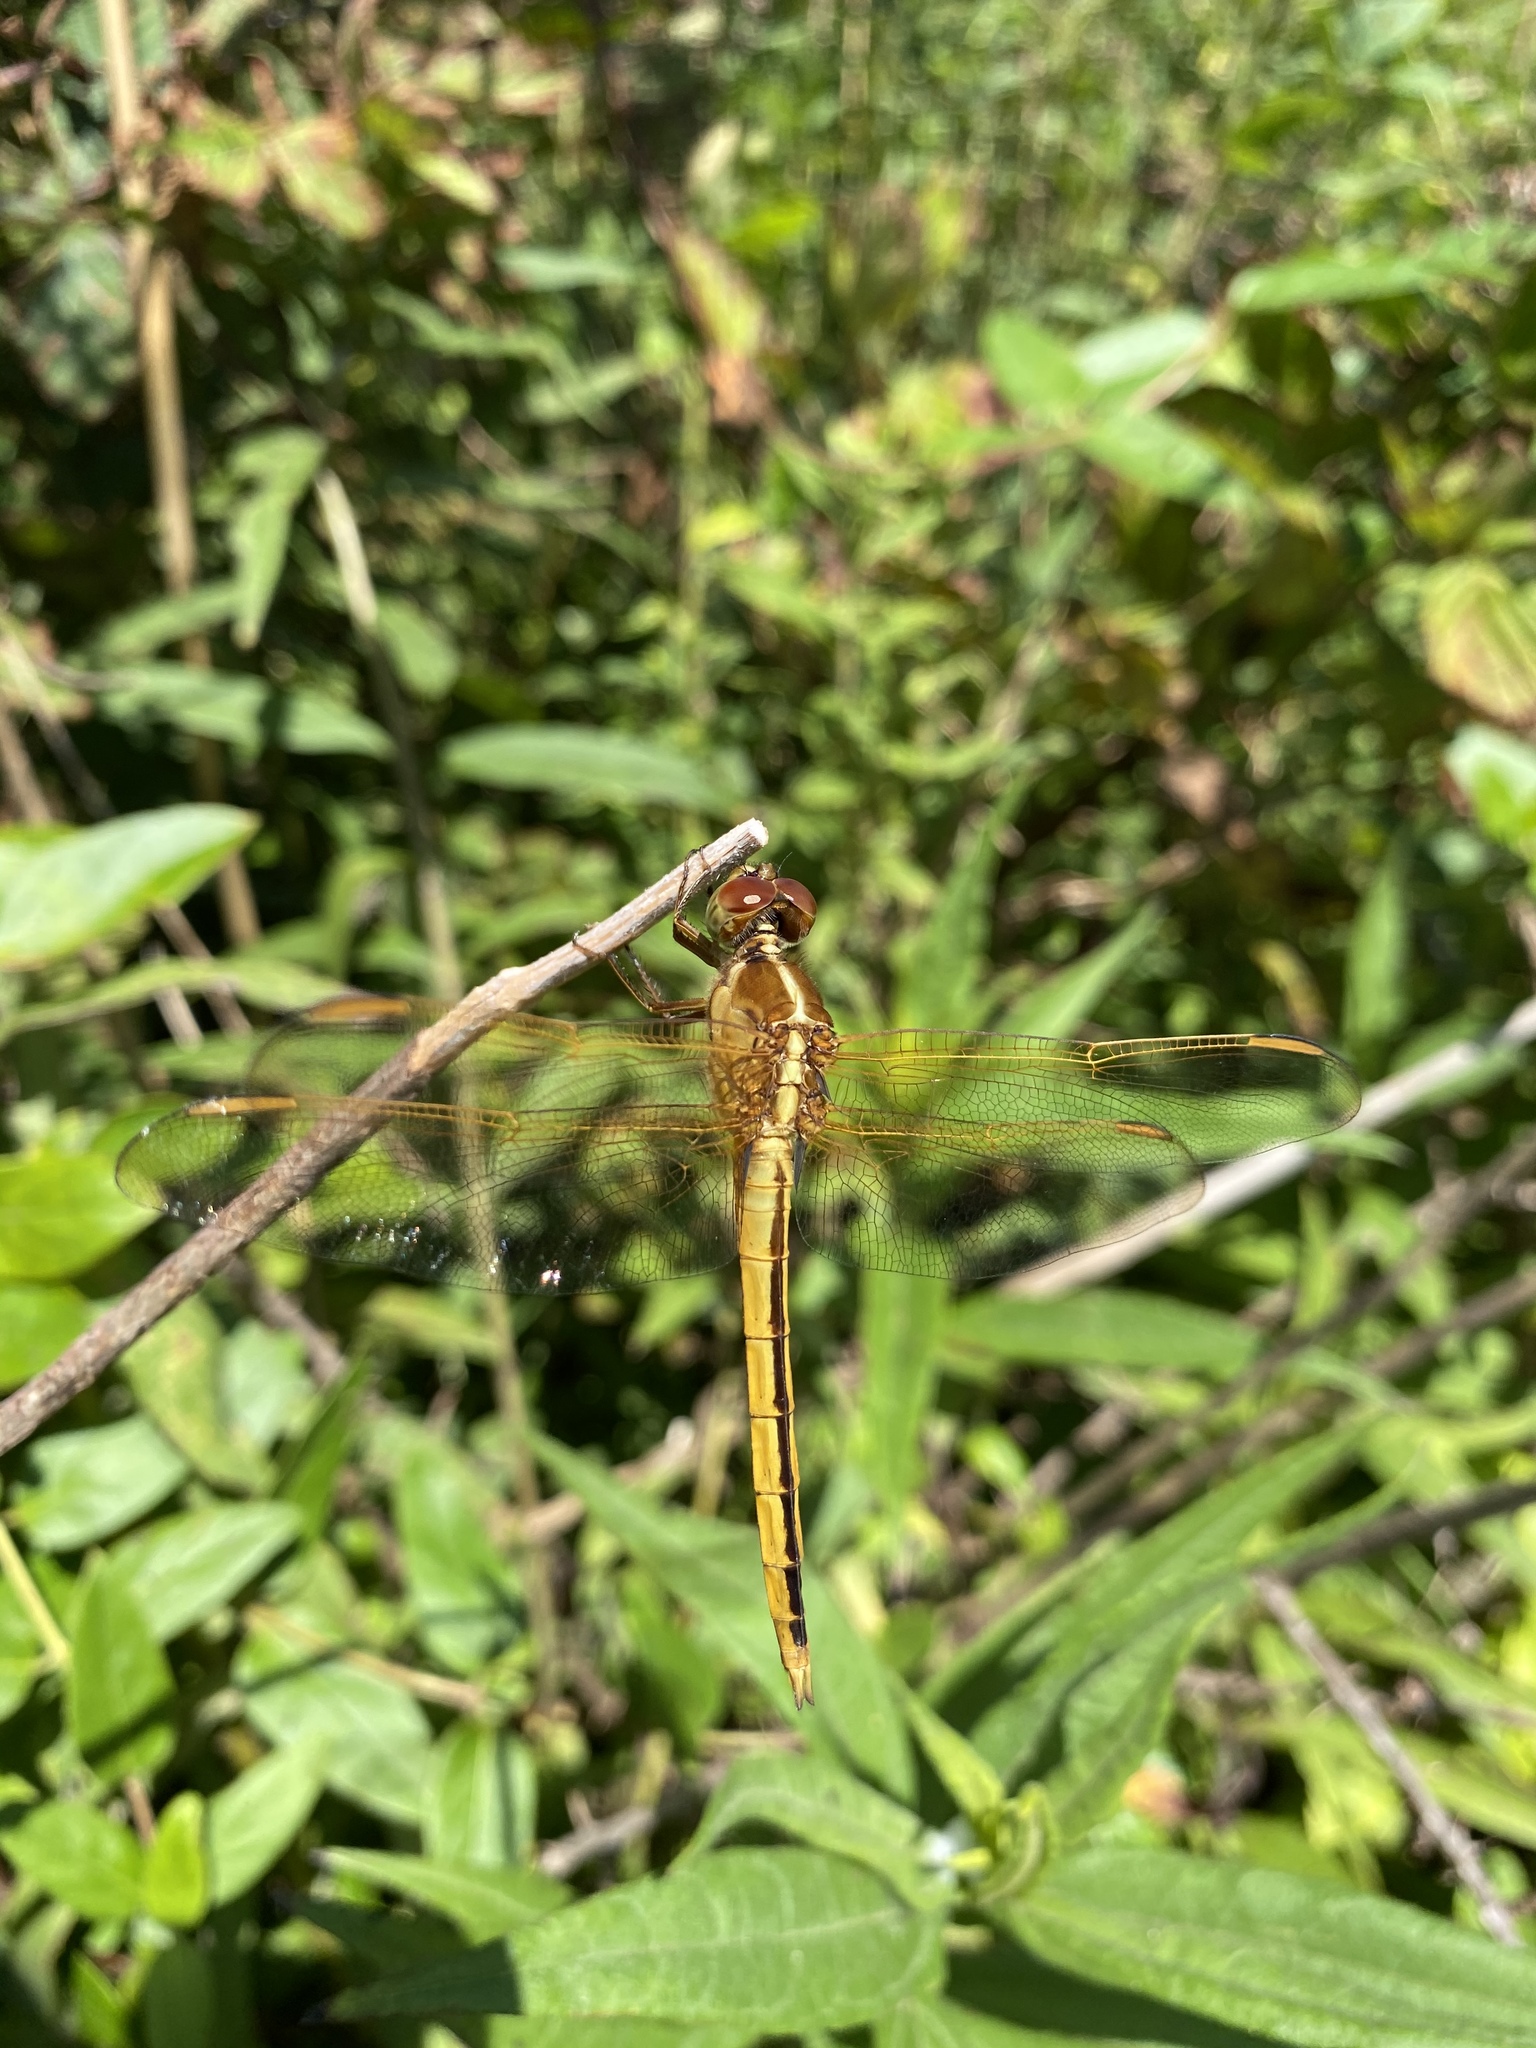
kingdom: Animalia
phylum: Arthropoda
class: Insecta
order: Odonata
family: Libellulidae
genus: Libellula
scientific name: Libellula needhami
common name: Needham's skimmer
